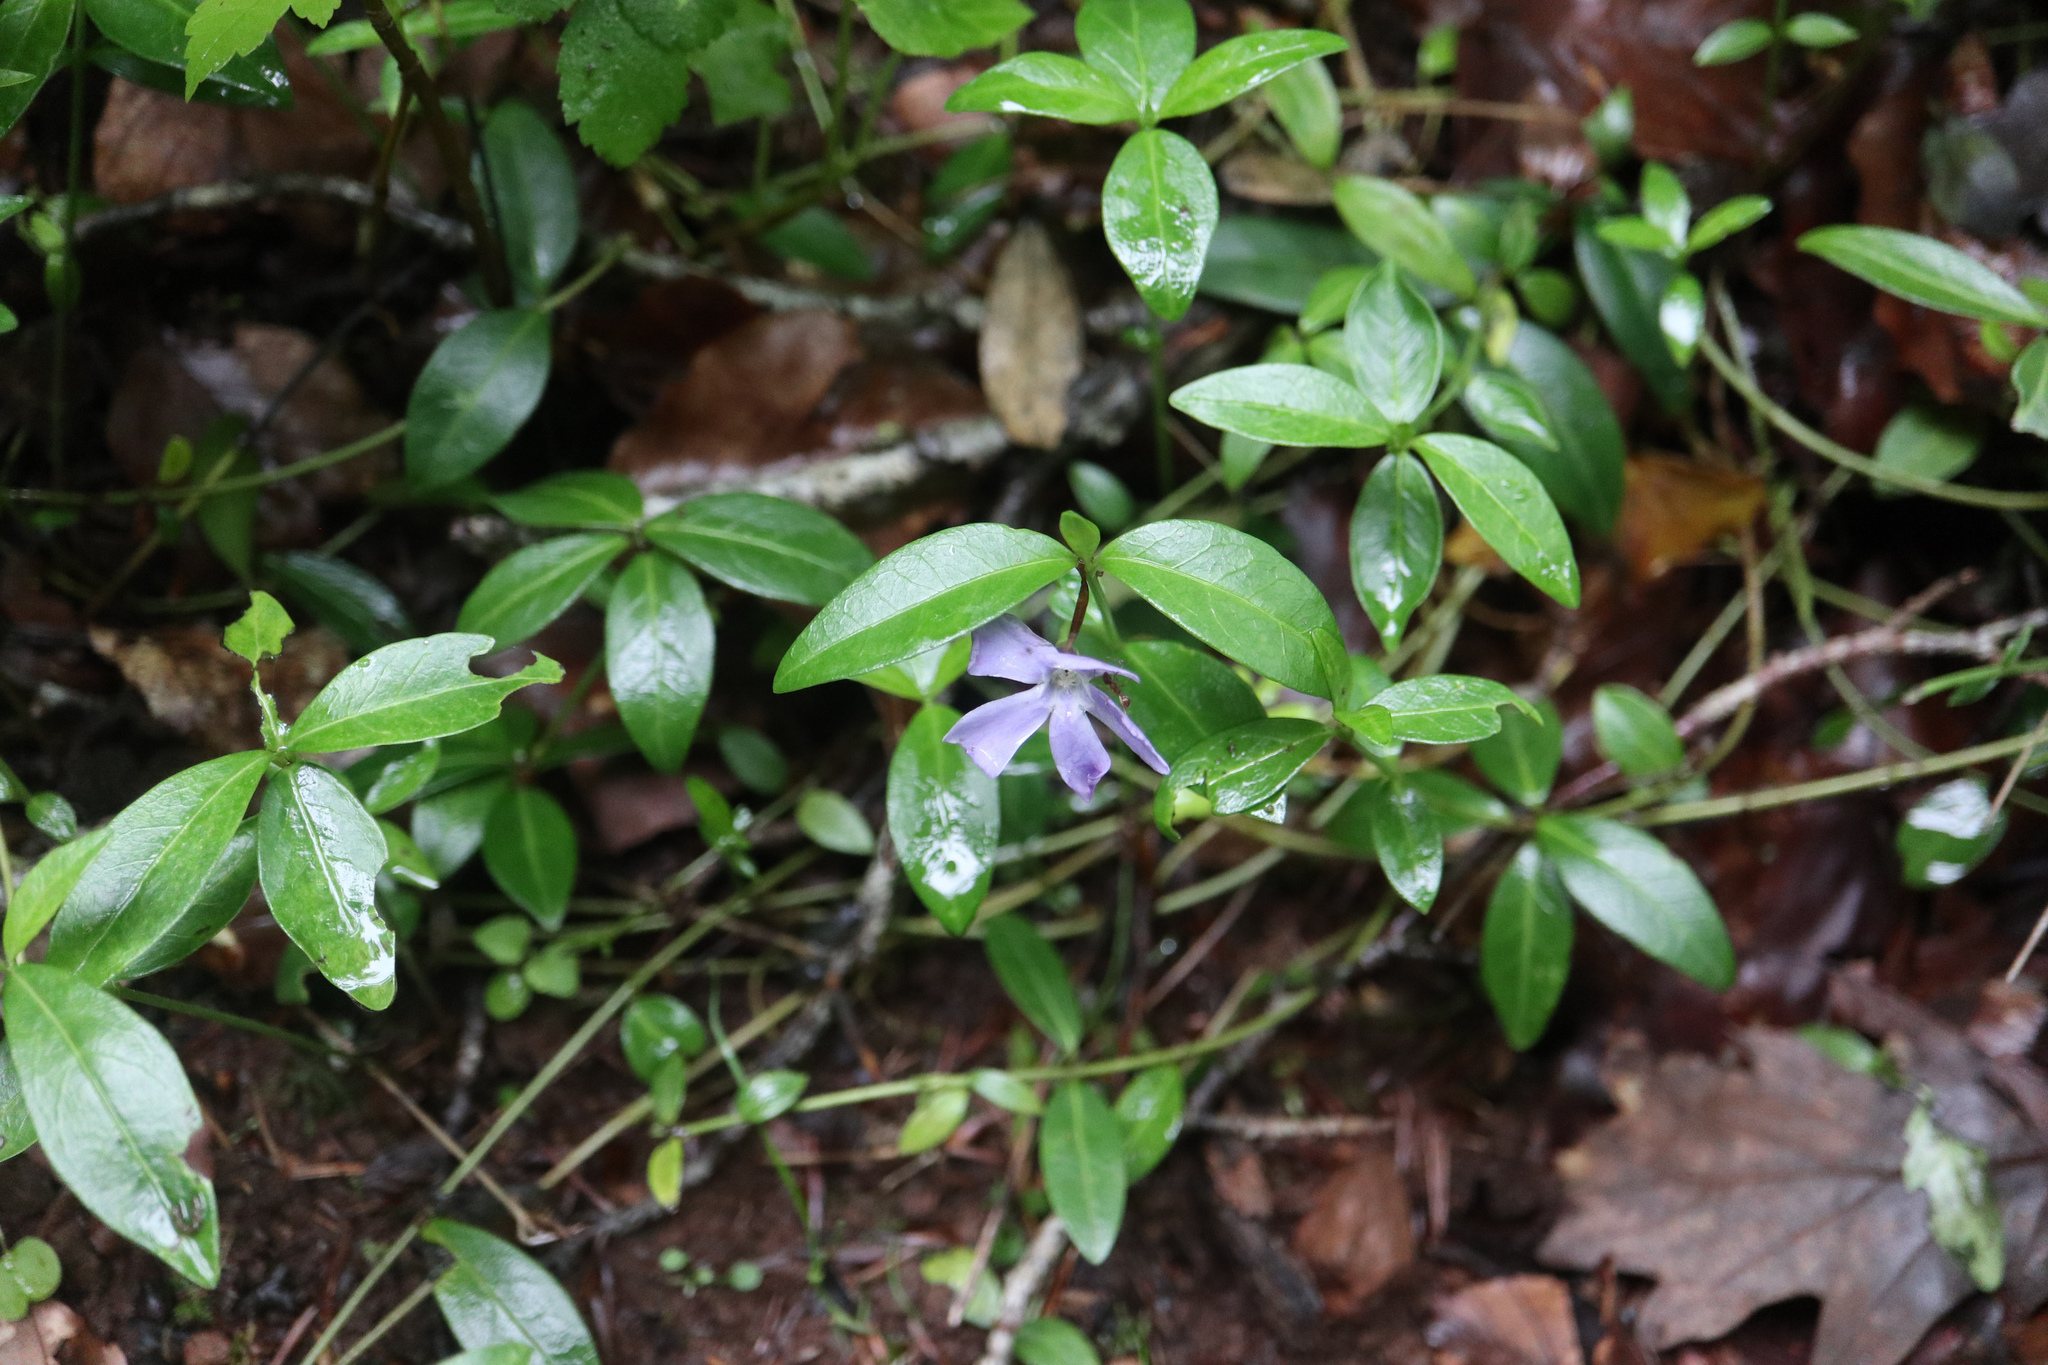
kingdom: Plantae
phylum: Tracheophyta
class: Magnoliopsida
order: Gentianales
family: Apocynaceae
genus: Vinca
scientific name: Vinca minor
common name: Lesser periwinkle
